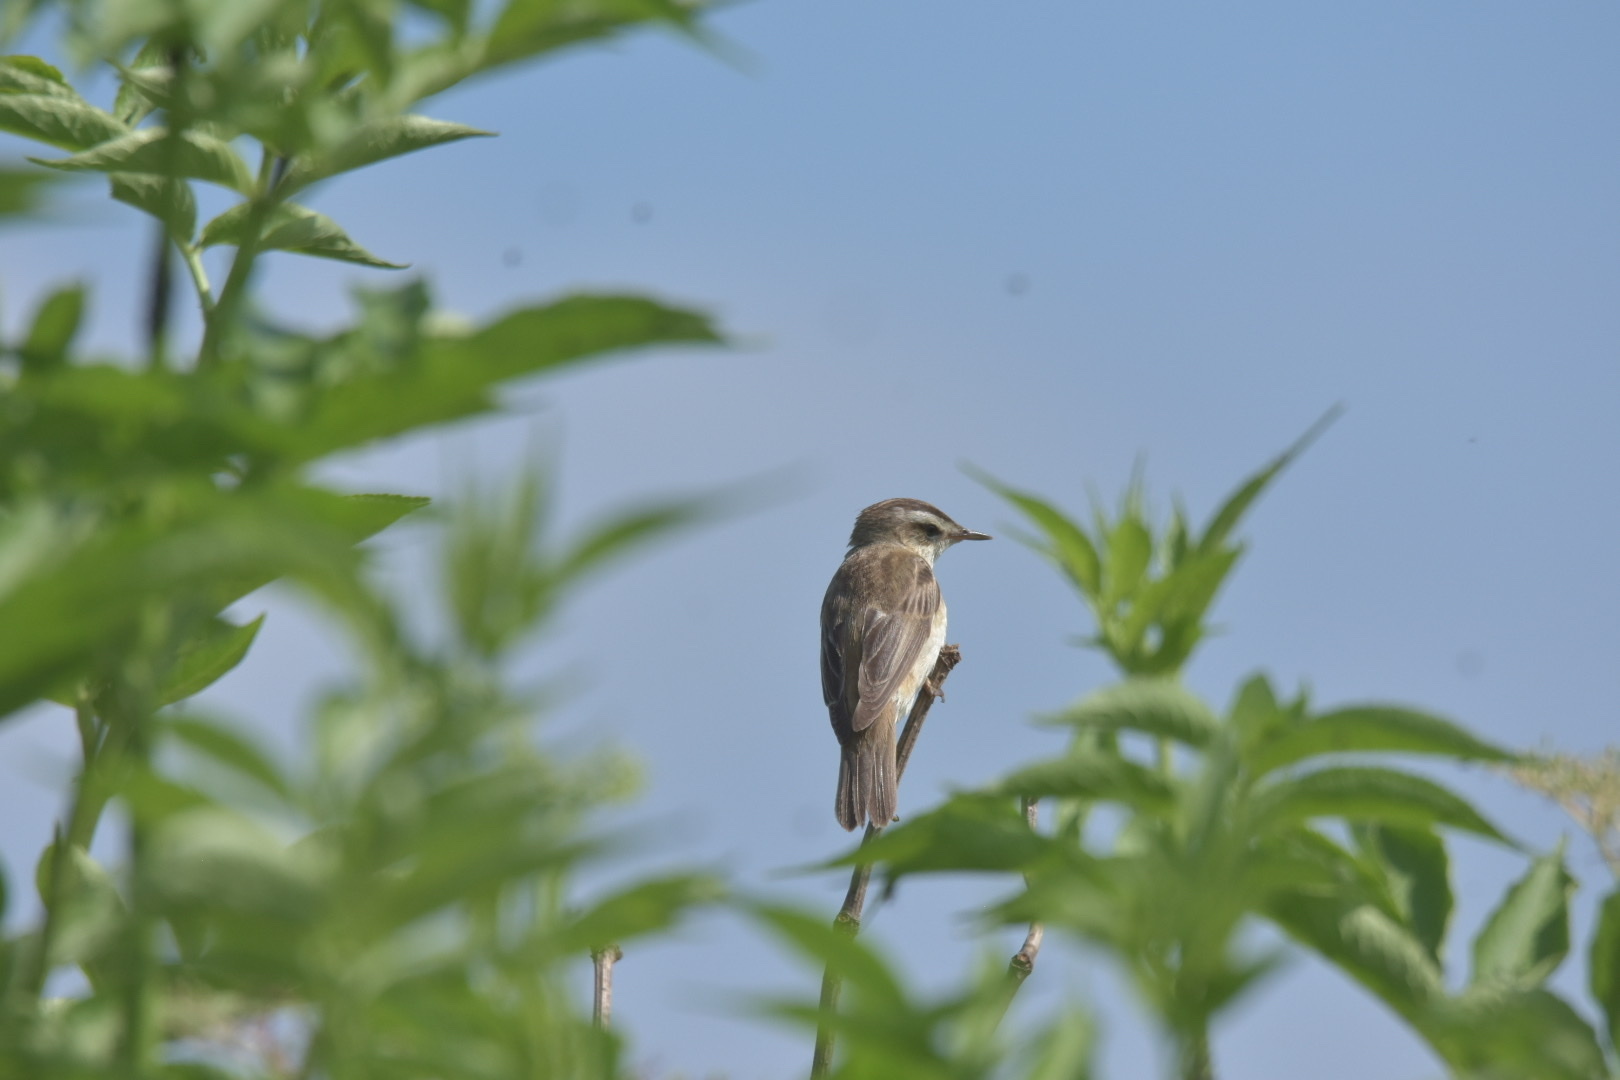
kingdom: Animalia
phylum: Chordata
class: Aves
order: Passeriformes
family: Acrocephalidae
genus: Acrocephalus
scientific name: Acrocephalus schoenobaenus
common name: Sedge warbler
